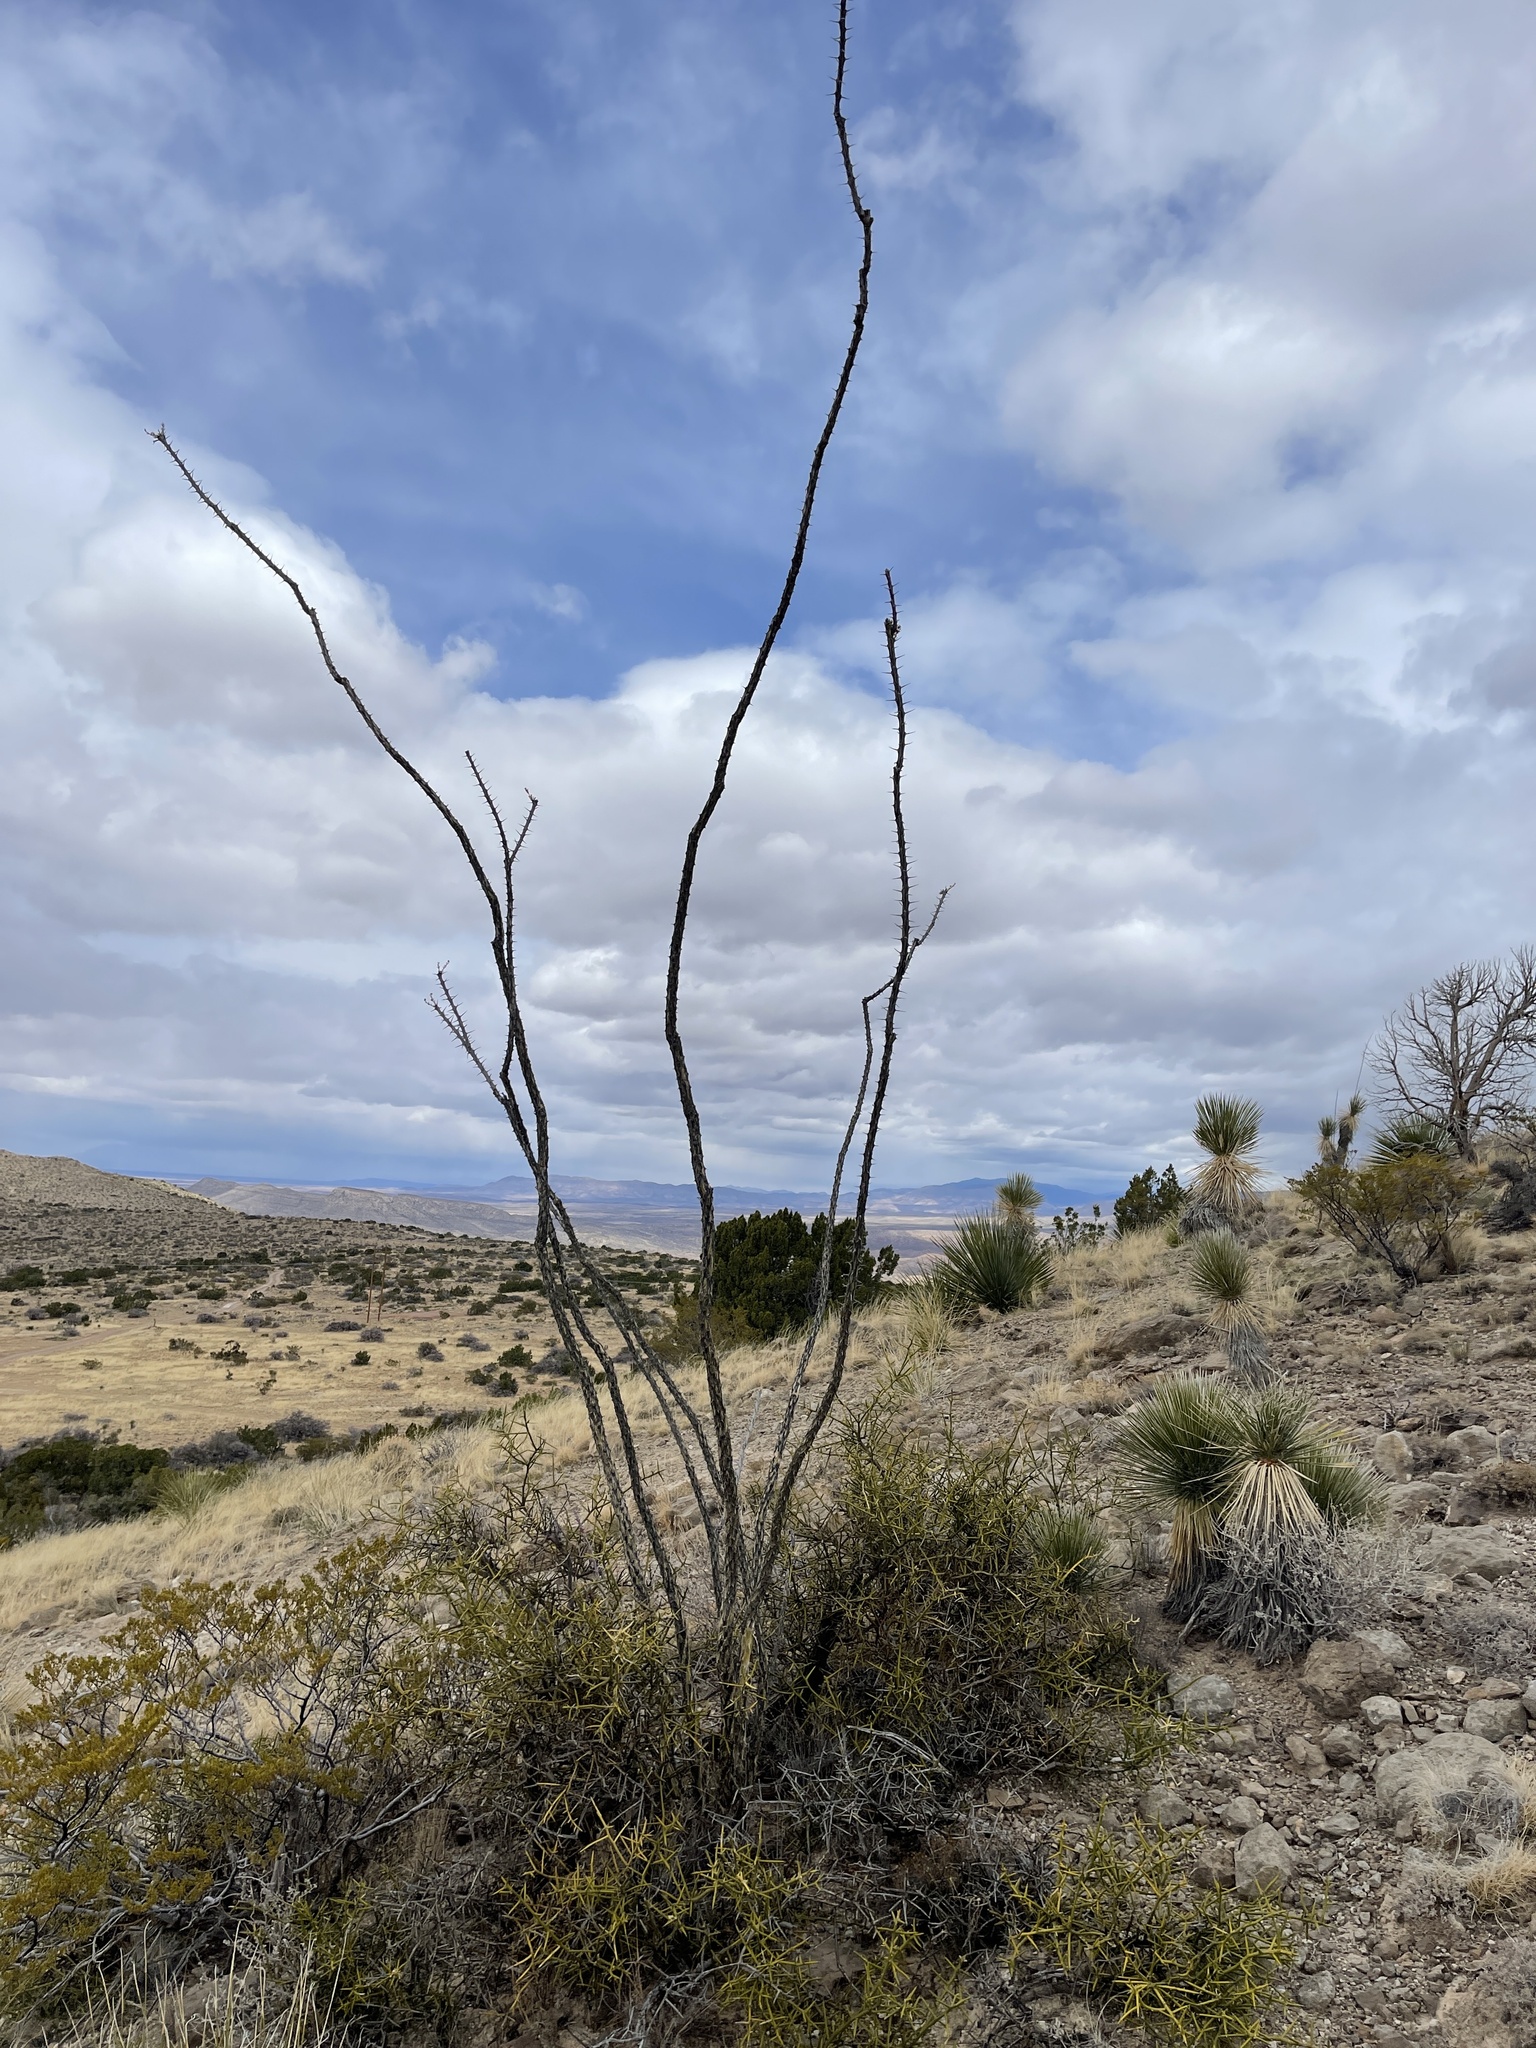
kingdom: Plantae
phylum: Tracheophyta
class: Magnoliopsida
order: Ericales
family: Fouquieriaceae
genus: Fouquieria
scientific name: Fouquieria splendens
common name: Vine-cactus
